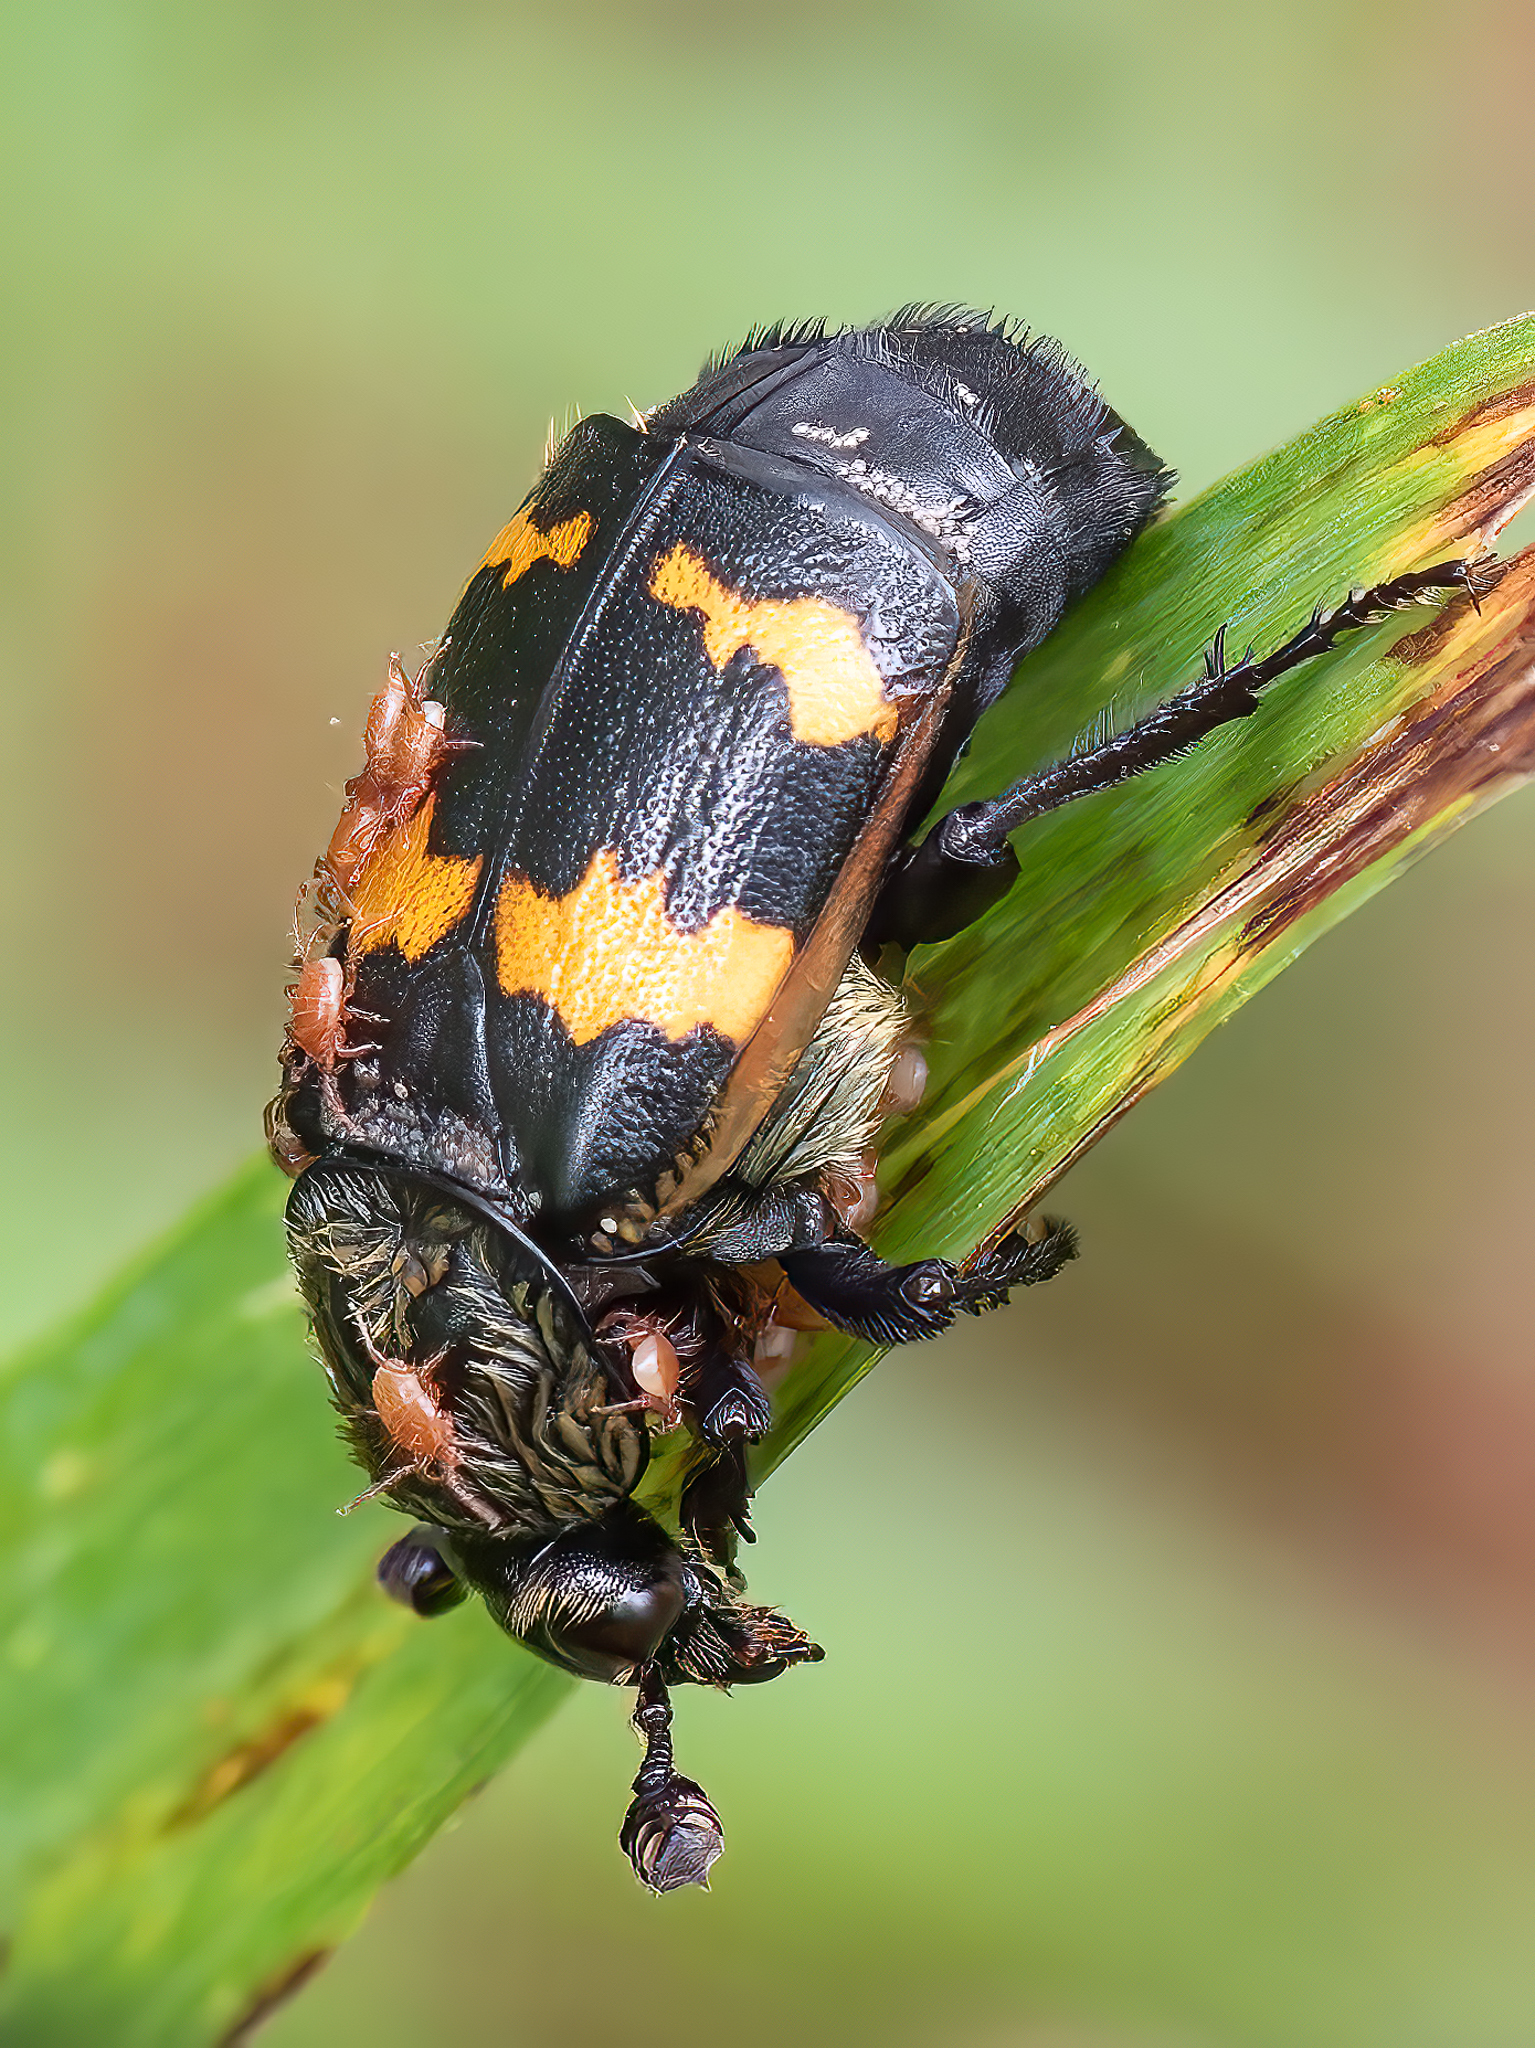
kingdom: Animalia
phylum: Arthropoda
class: Insecta
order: Coleoptera
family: Staphylinidae
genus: Nicrophorus
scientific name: Nicrophorus tomentosus
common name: Tomentose burying beetle
